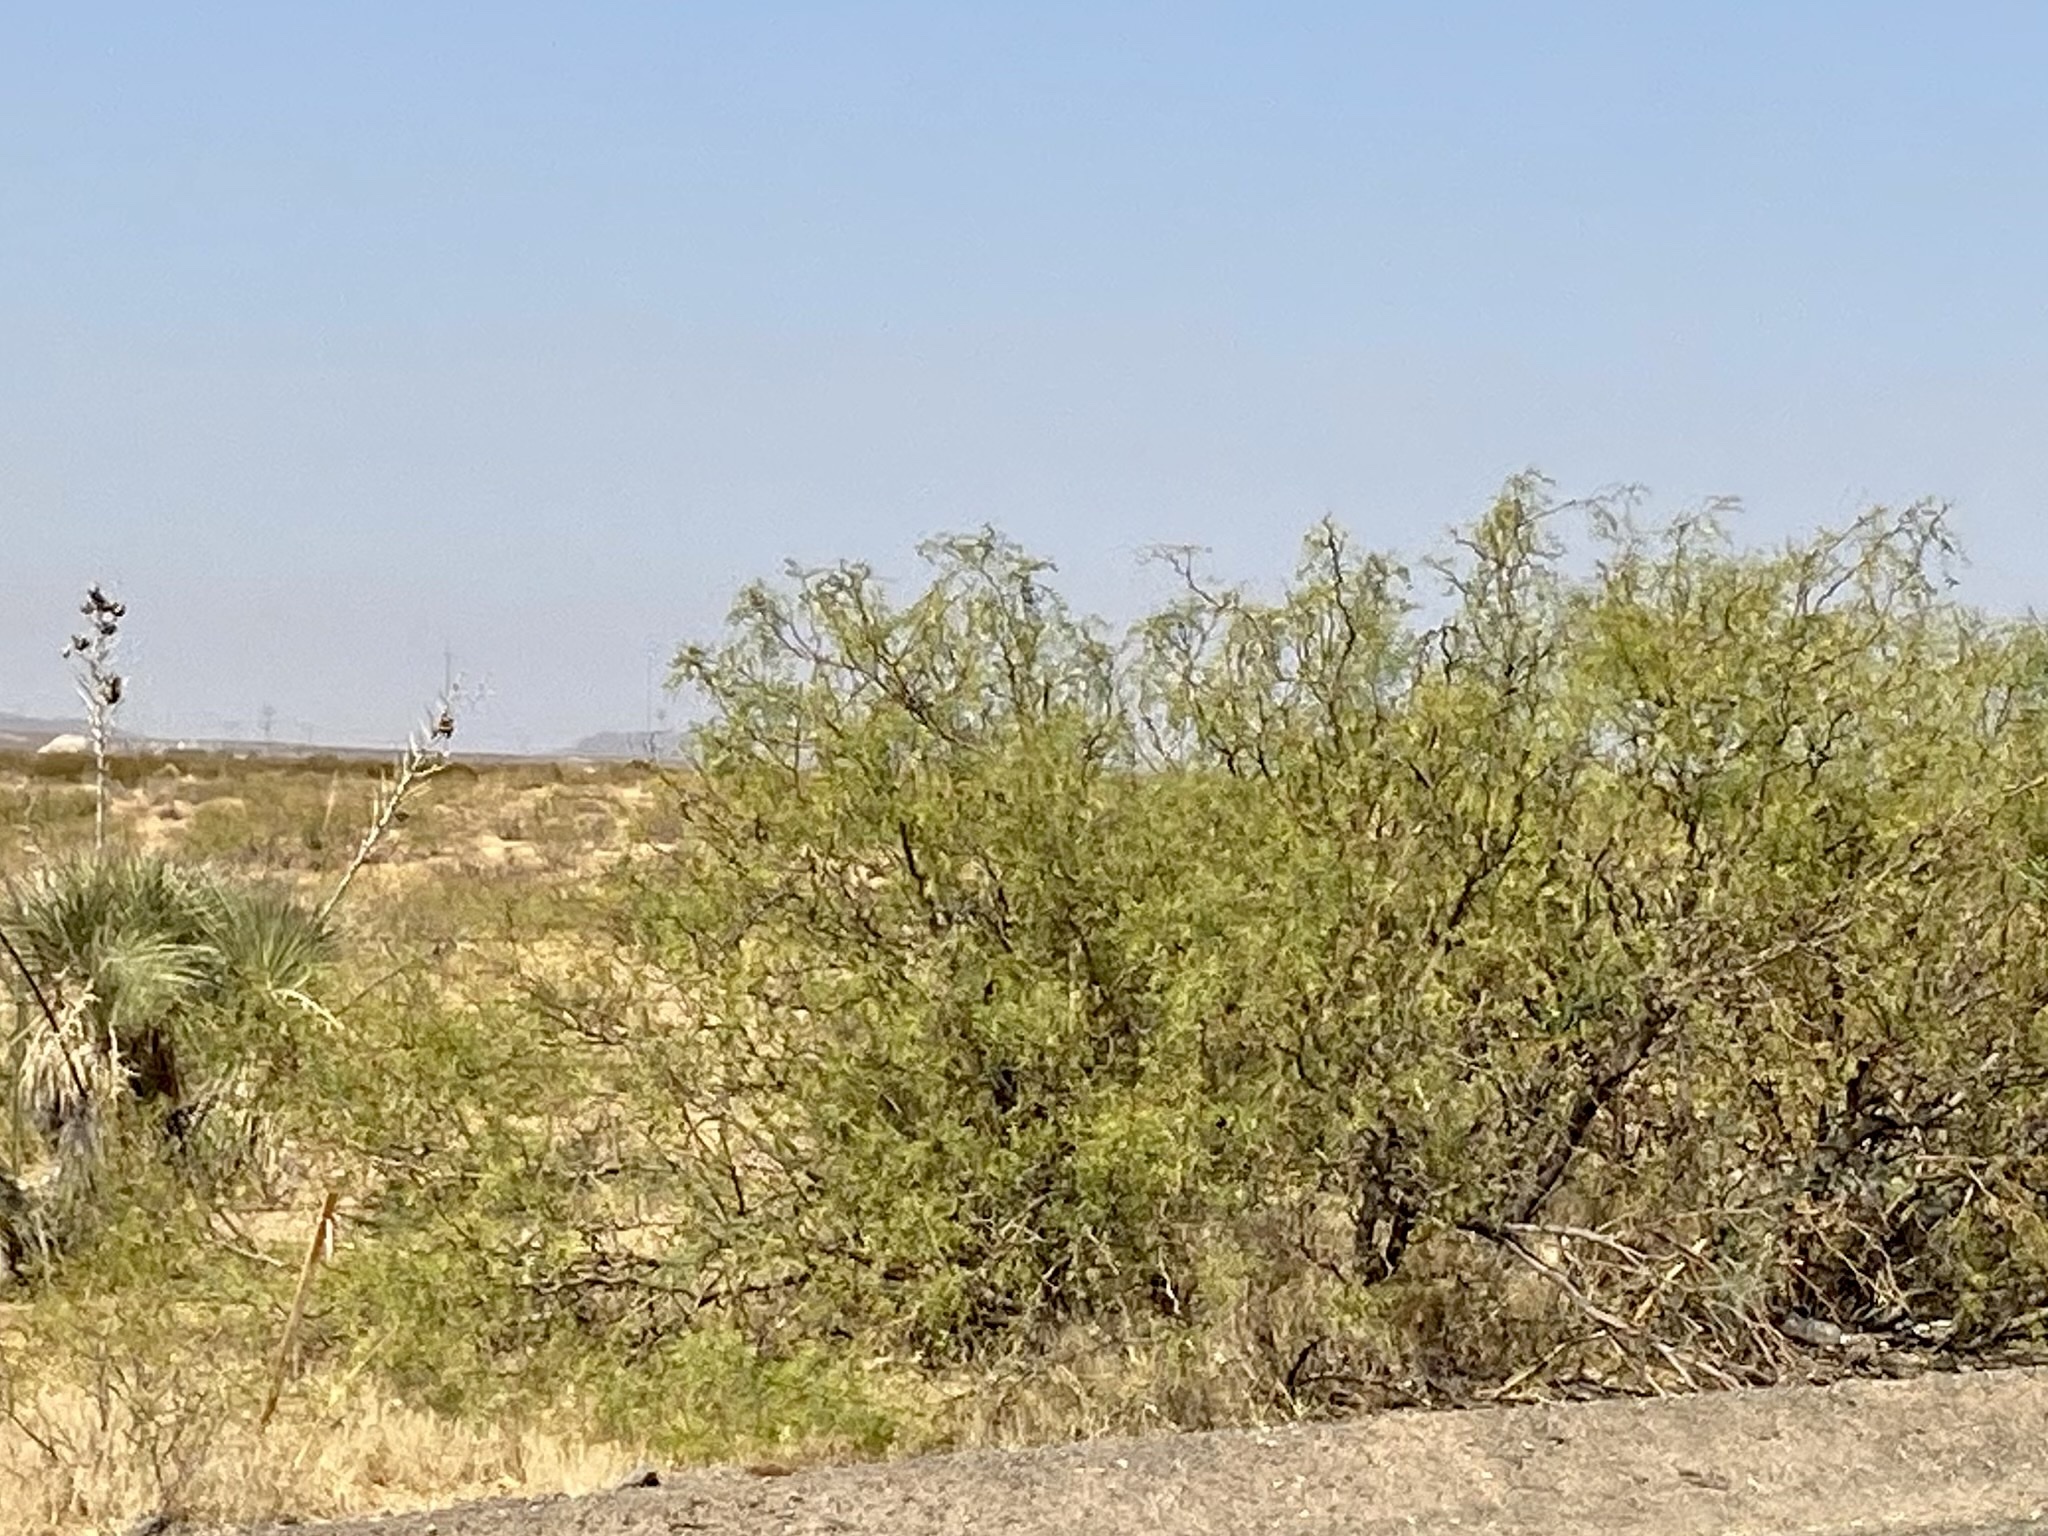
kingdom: Plantae
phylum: Tracheophyta
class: Magnoliopsida
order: Fabales
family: Fabaceae
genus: Prosopis
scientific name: Prosopis glandulosa
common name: Honey mesquite
